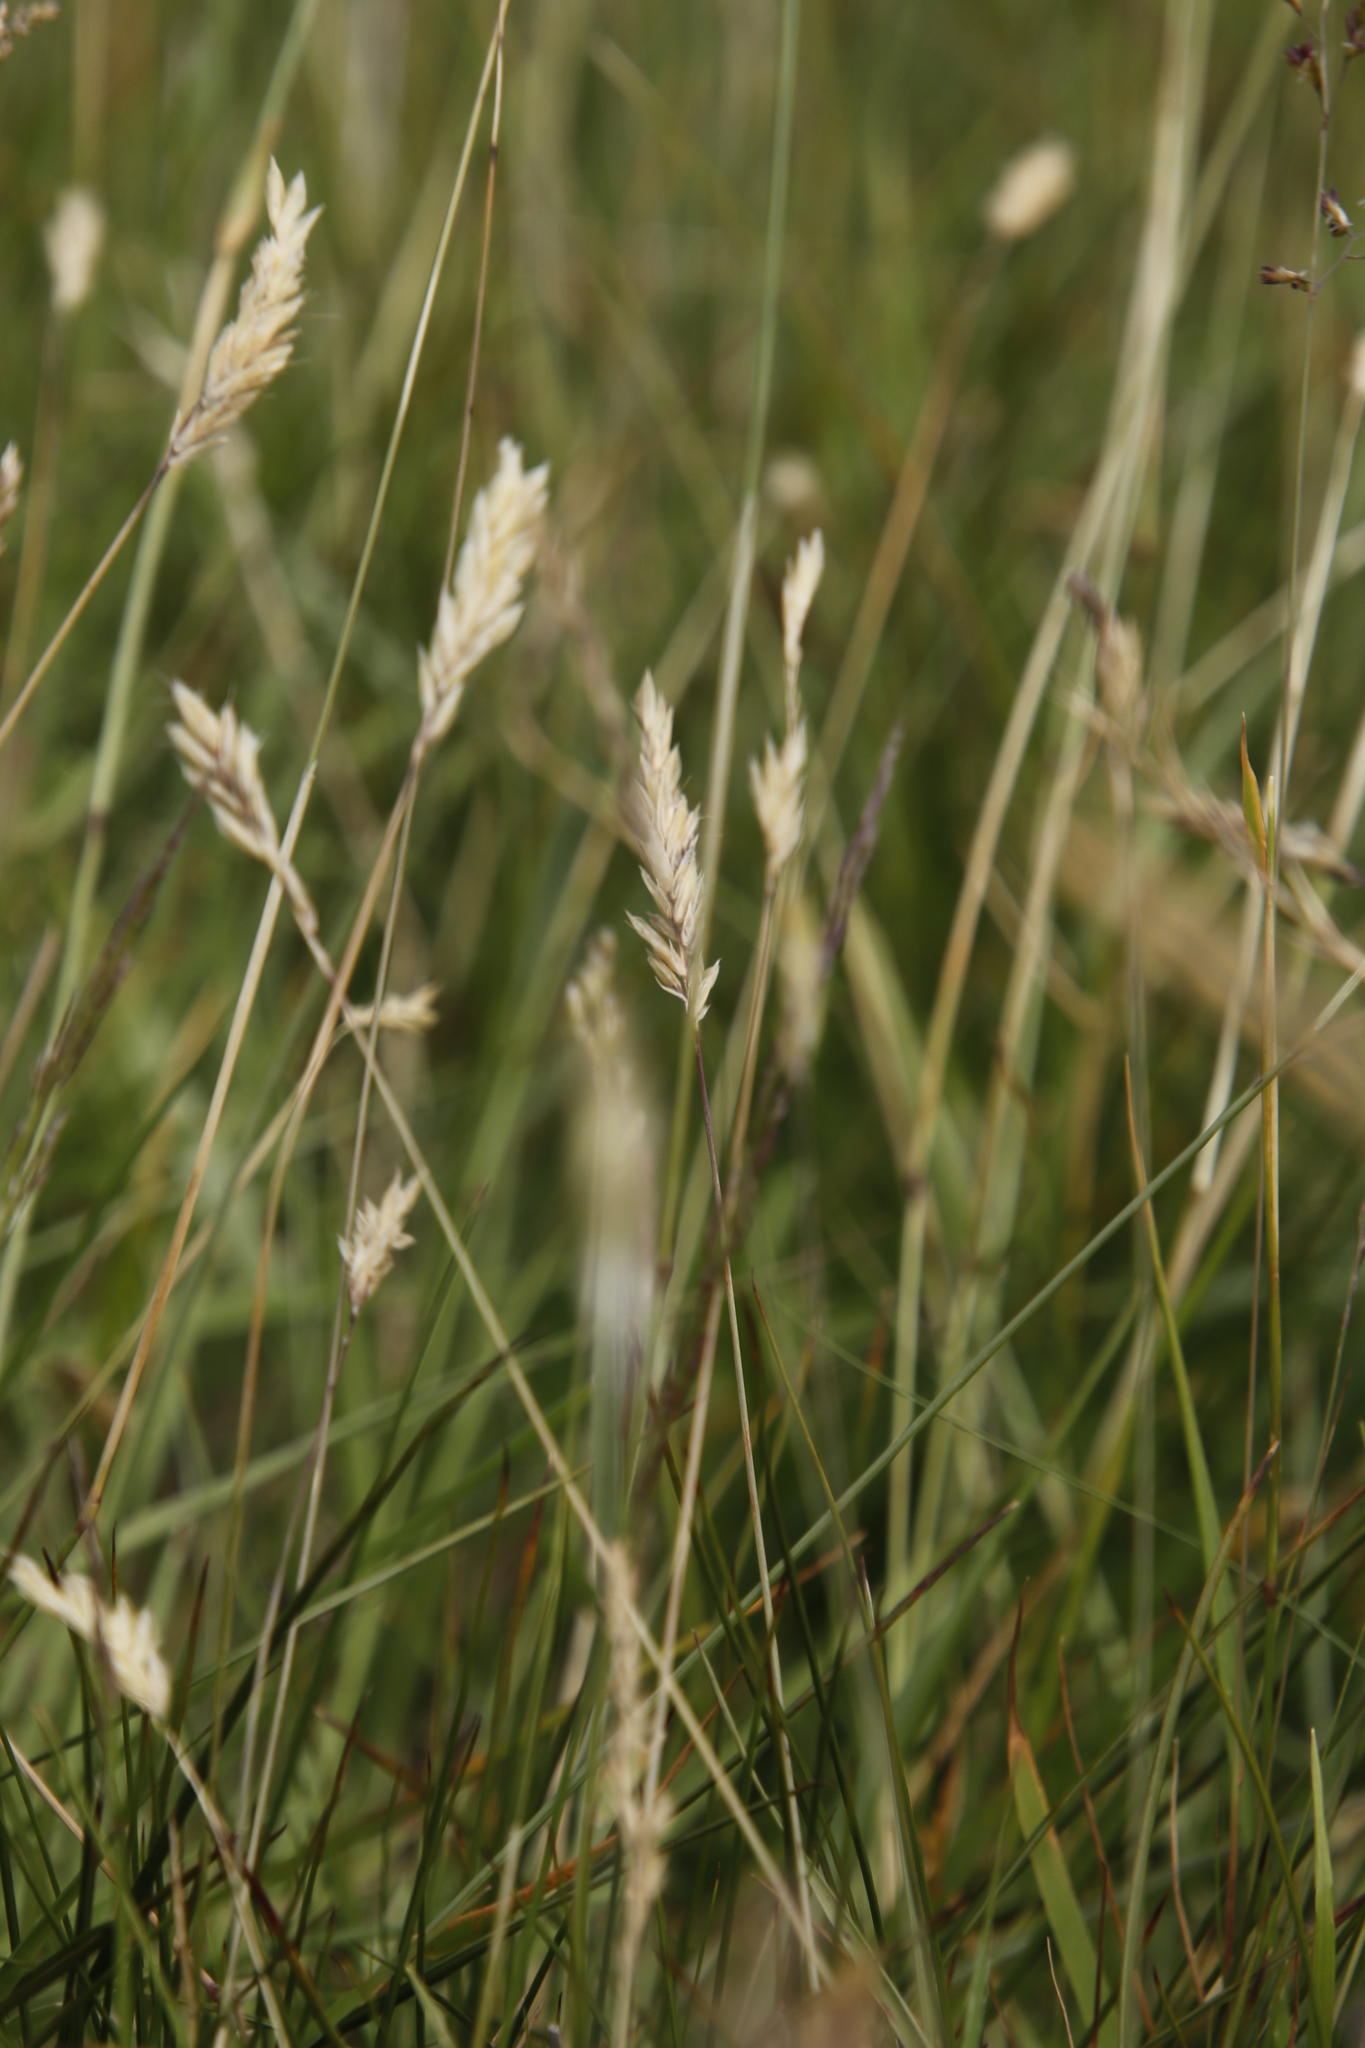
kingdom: Plantae
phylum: Tracheophyta
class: Liliopsida
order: Poales
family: Poaceae
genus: Anthoxanthum
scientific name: Anthoxanthum odoratum
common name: Sweet vernalgrass
